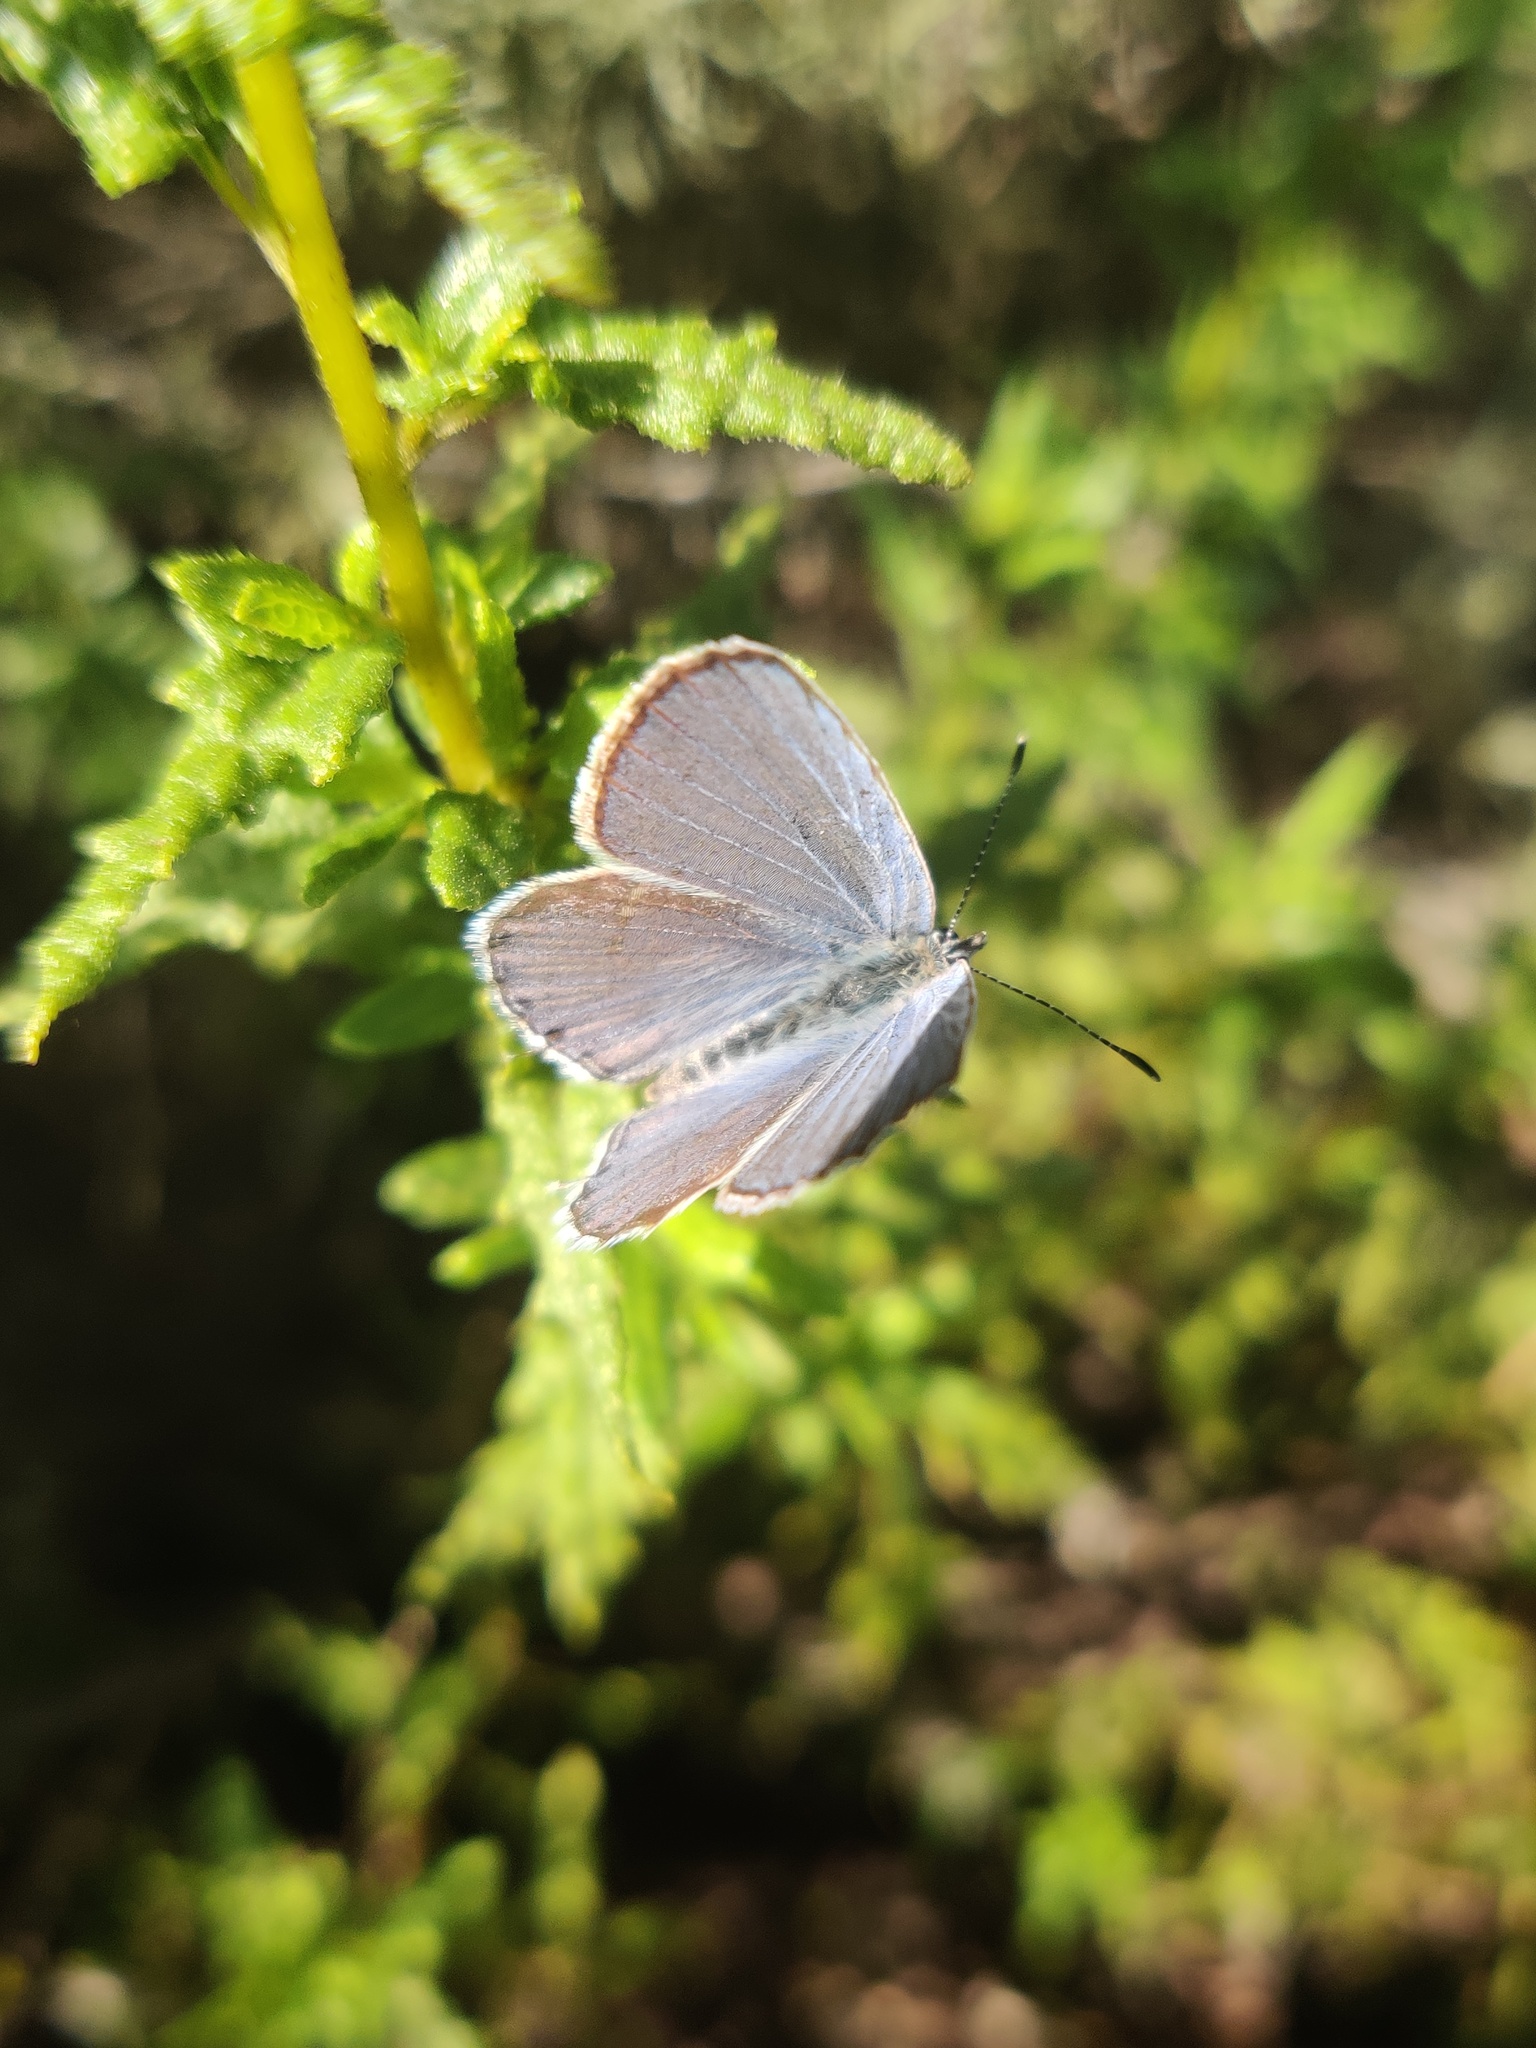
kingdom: Animalia
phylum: Arthropoda
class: Insecta
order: Lepidoptera
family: Lycaenidae
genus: Elkalyce
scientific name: Elkalyce amyntula
